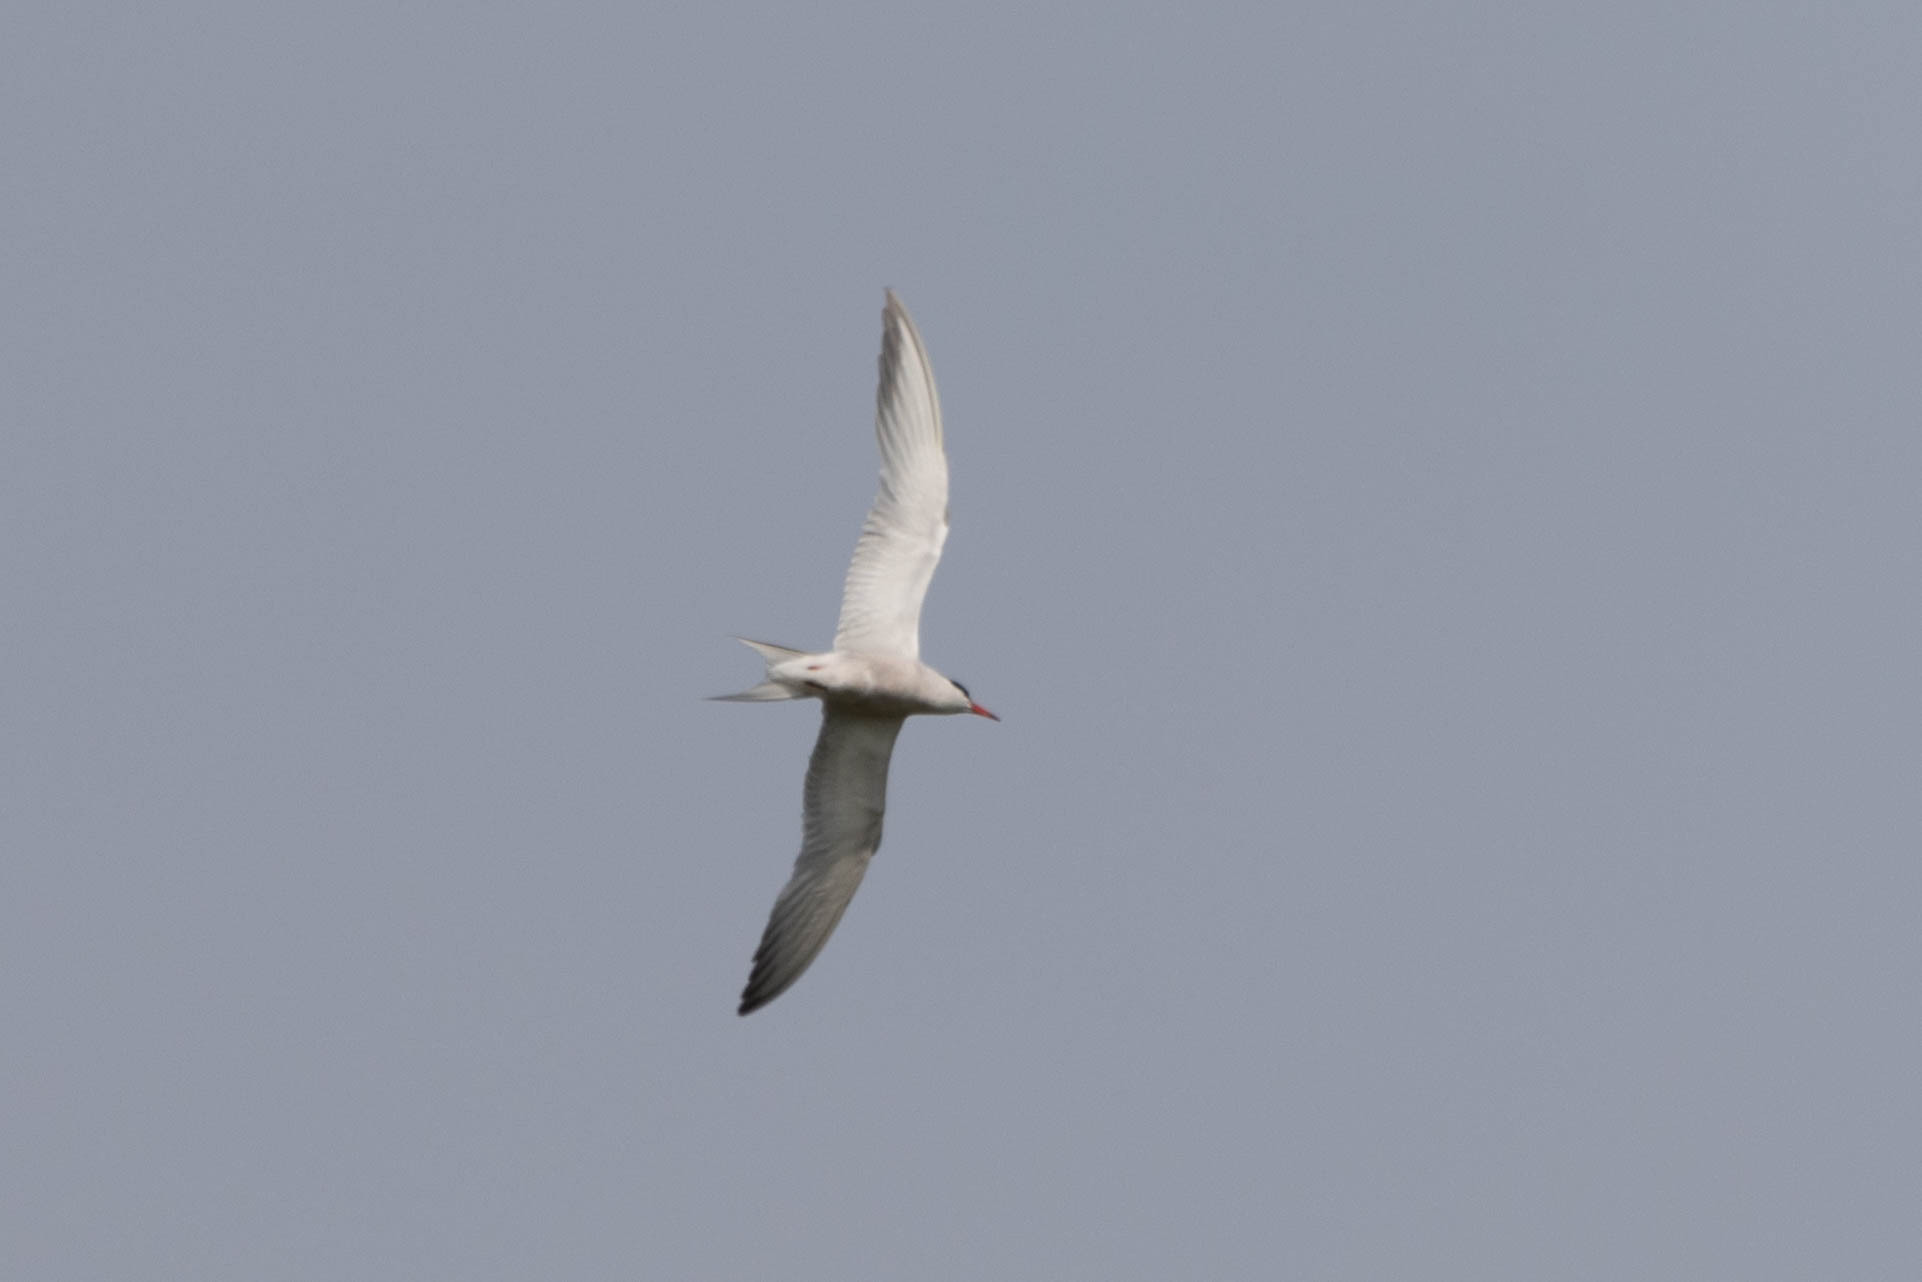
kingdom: Animalia
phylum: Chordata
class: Aves
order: Charadriiformes
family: Laridae
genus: Sterna
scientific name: Sterna hirundo
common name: Common tern
